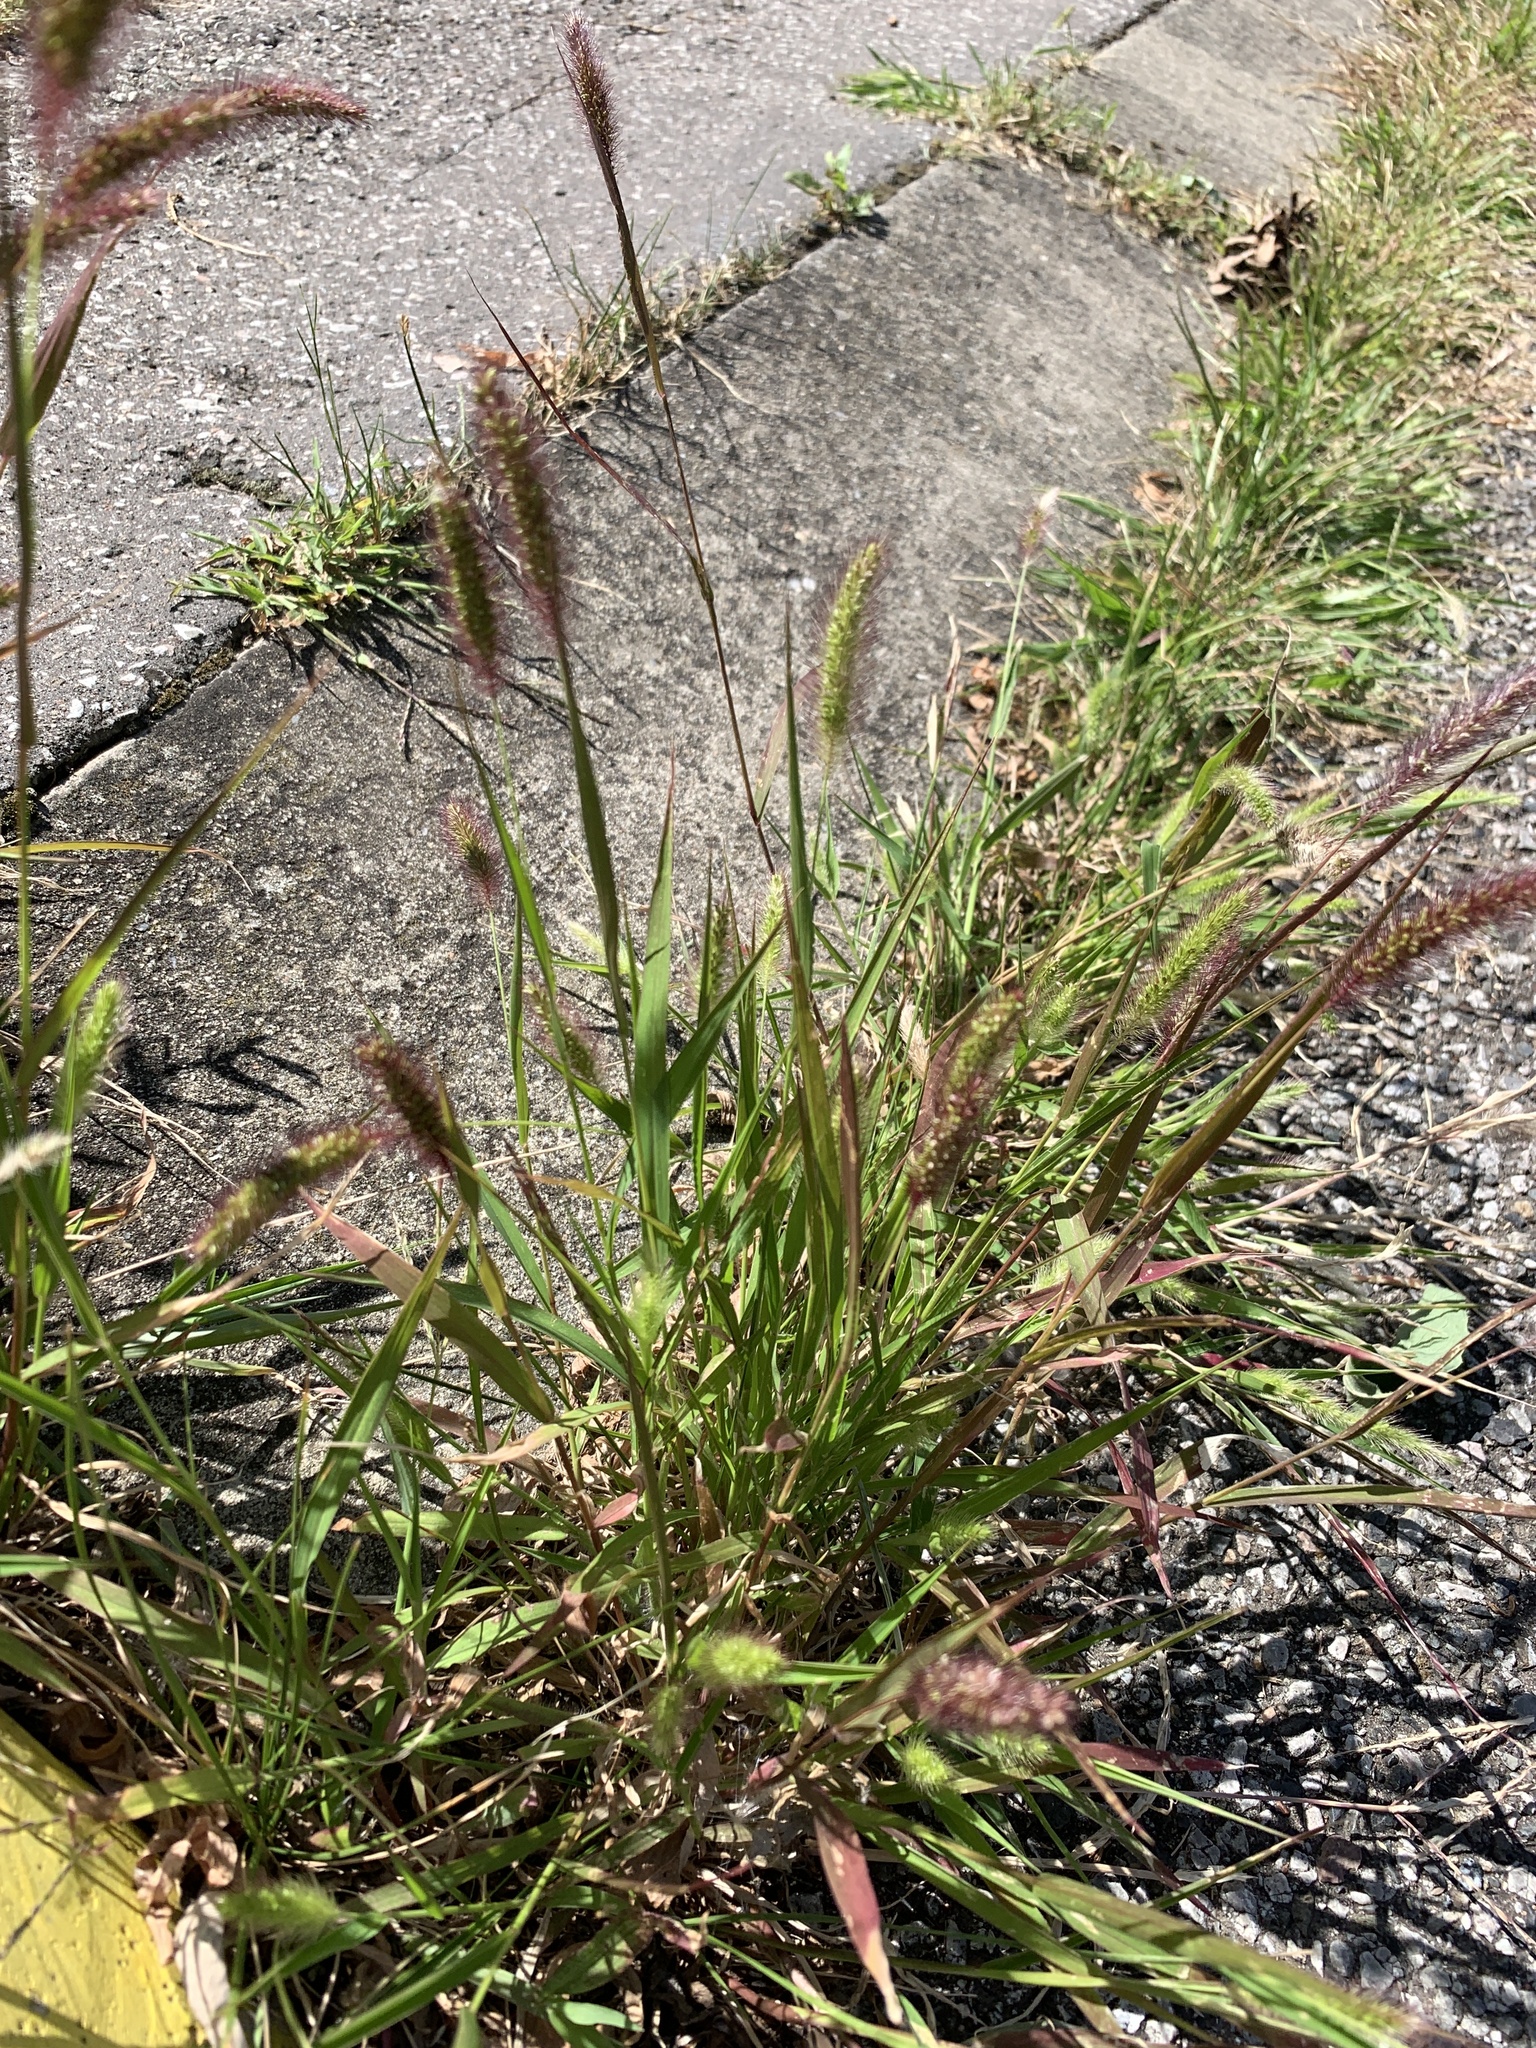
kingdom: Plantae
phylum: Tracheophyta
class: Liliopsida
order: Poales
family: Poaceae
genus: Setaria
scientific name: Setaria viridis
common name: Green bristlegrass
